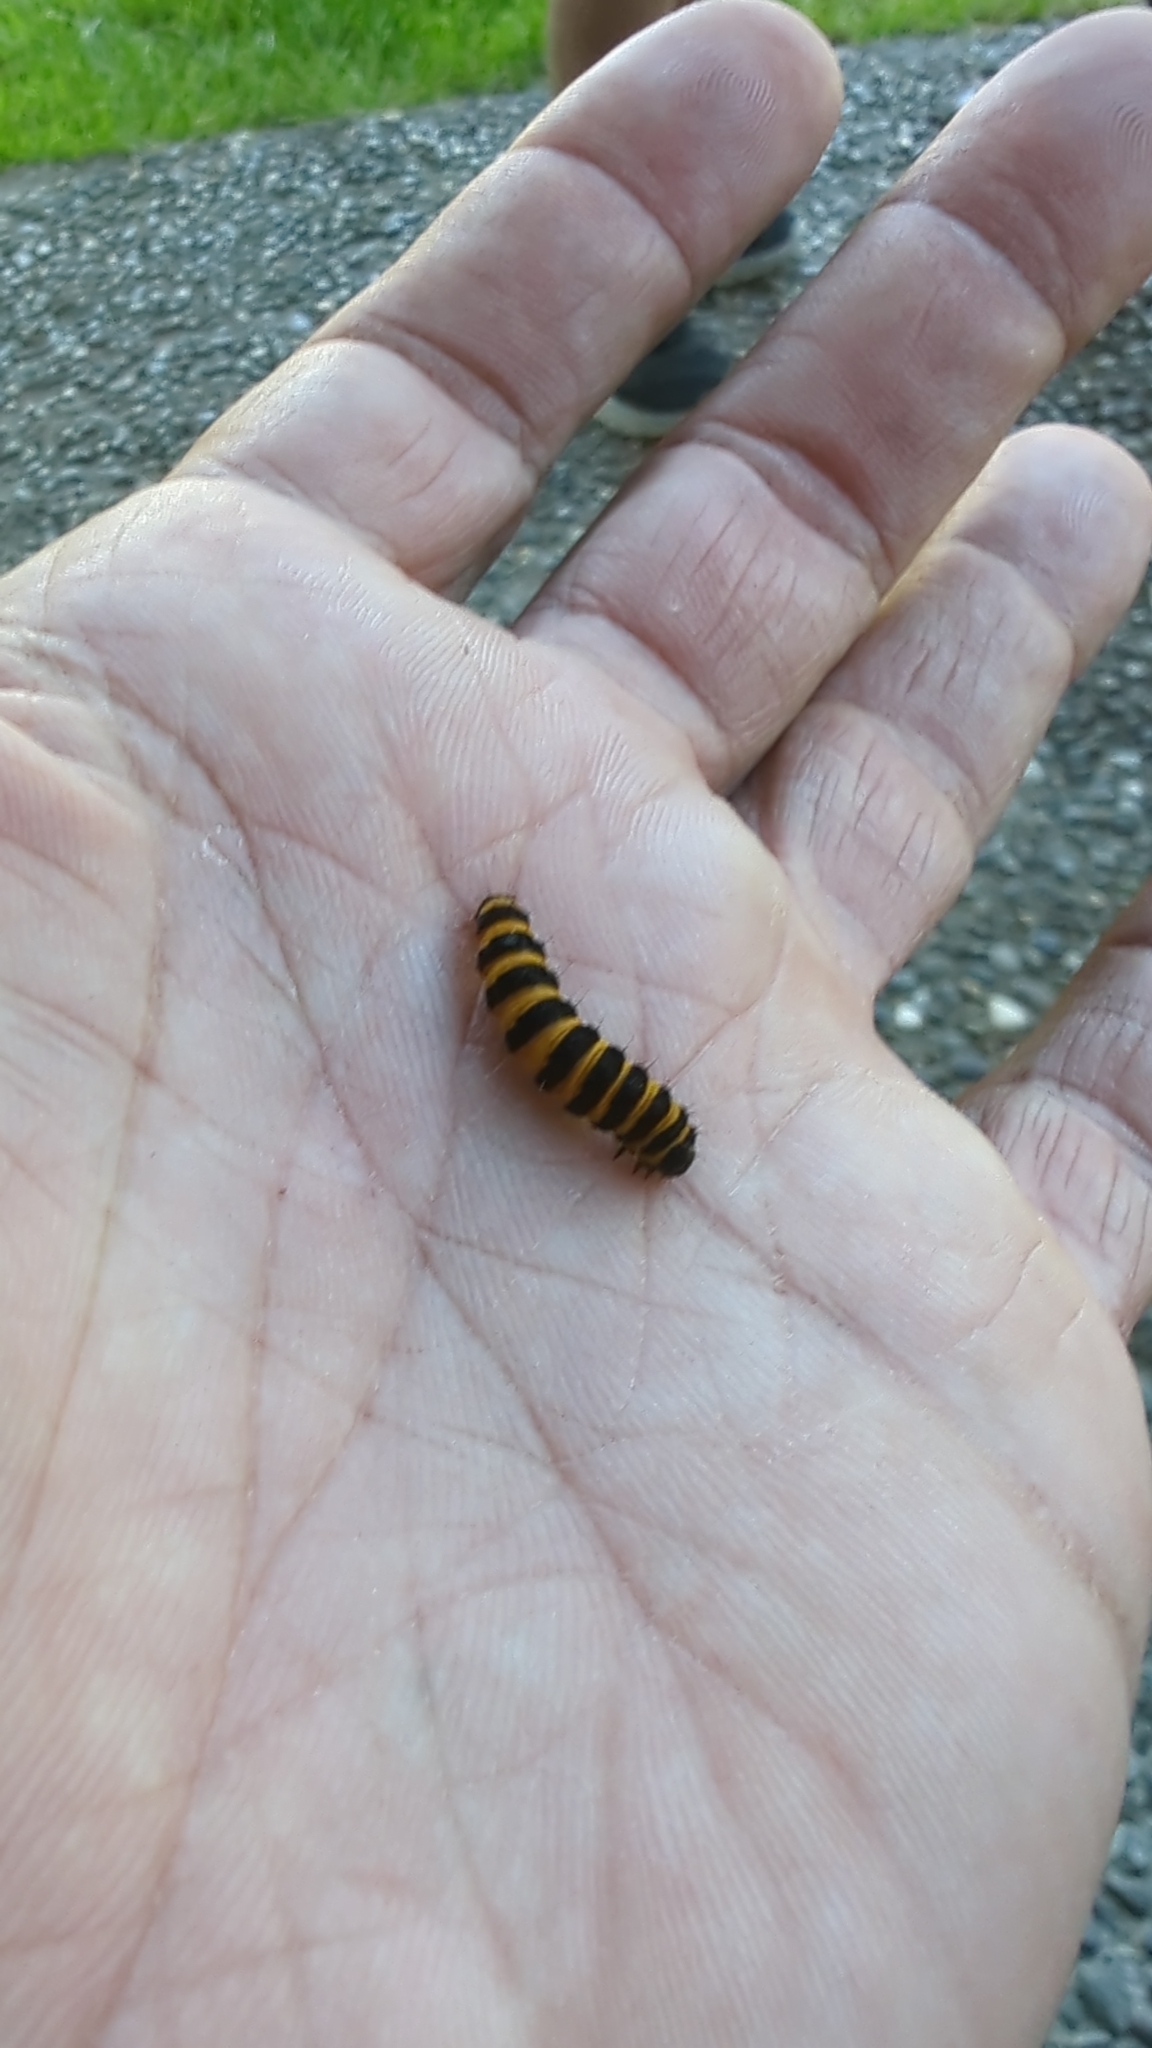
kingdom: Animalia
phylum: Arthropoda
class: Insecta
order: Lepidoptera
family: Erebidae
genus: Tyria
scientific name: Tyria jacobaeae
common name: Cinnabar
